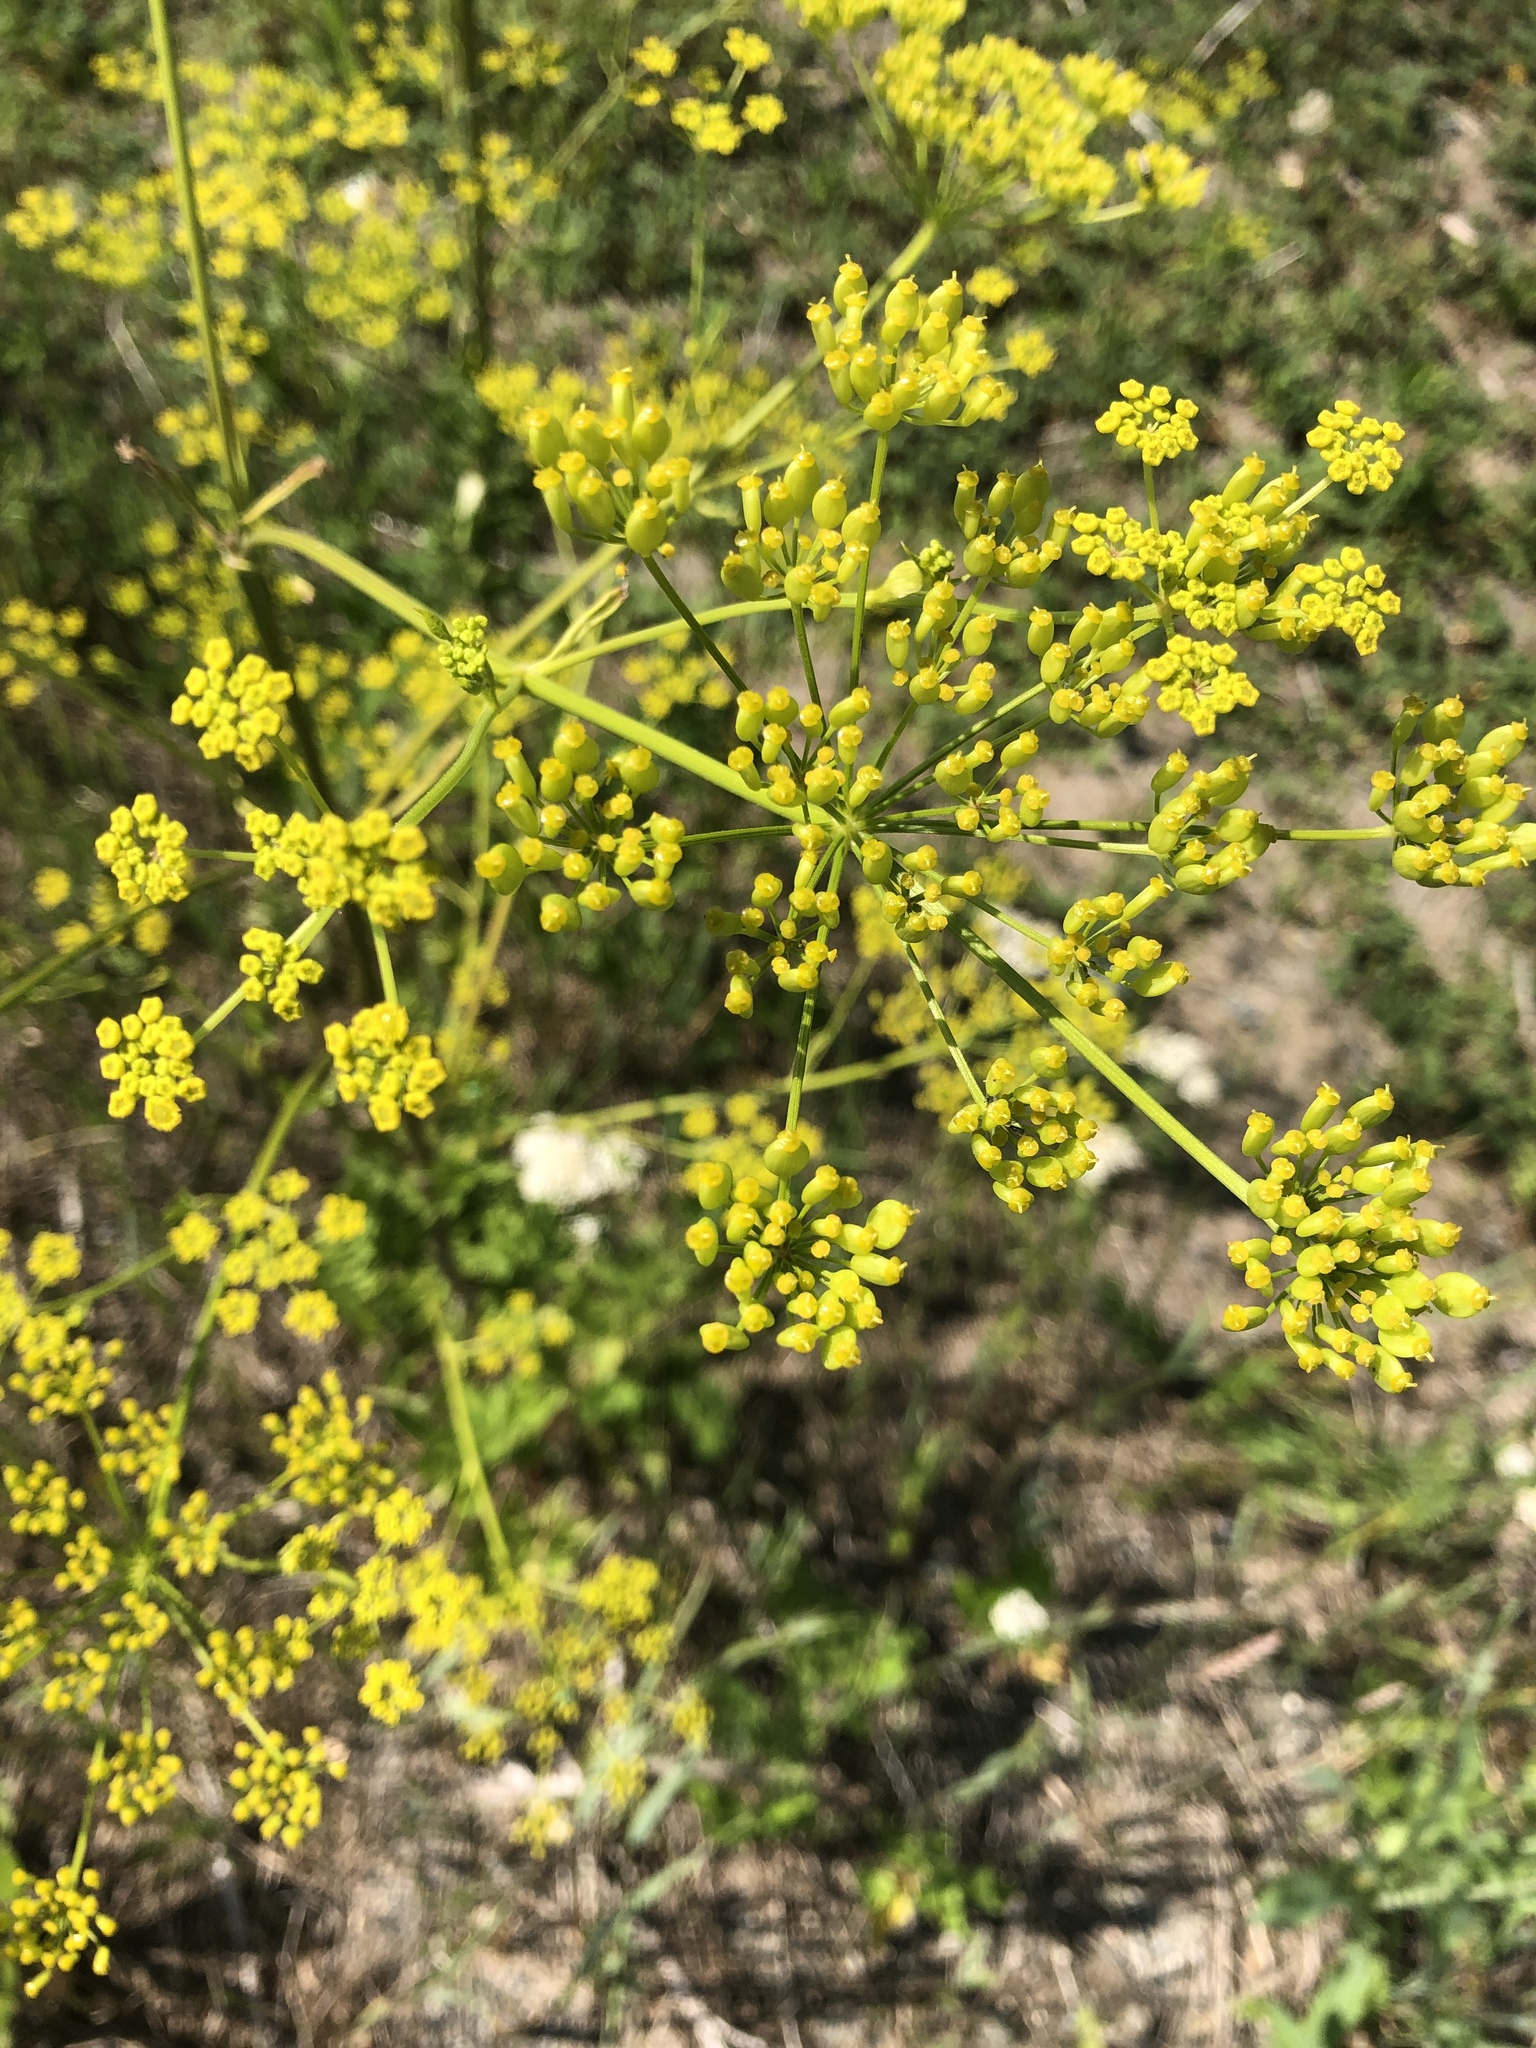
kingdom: Plantae
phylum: Tracheophyta
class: Magnoliopsida
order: Apiales
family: Apiaceae
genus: Pastinaca
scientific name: Pastinaca sativa
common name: Wild parsnip
